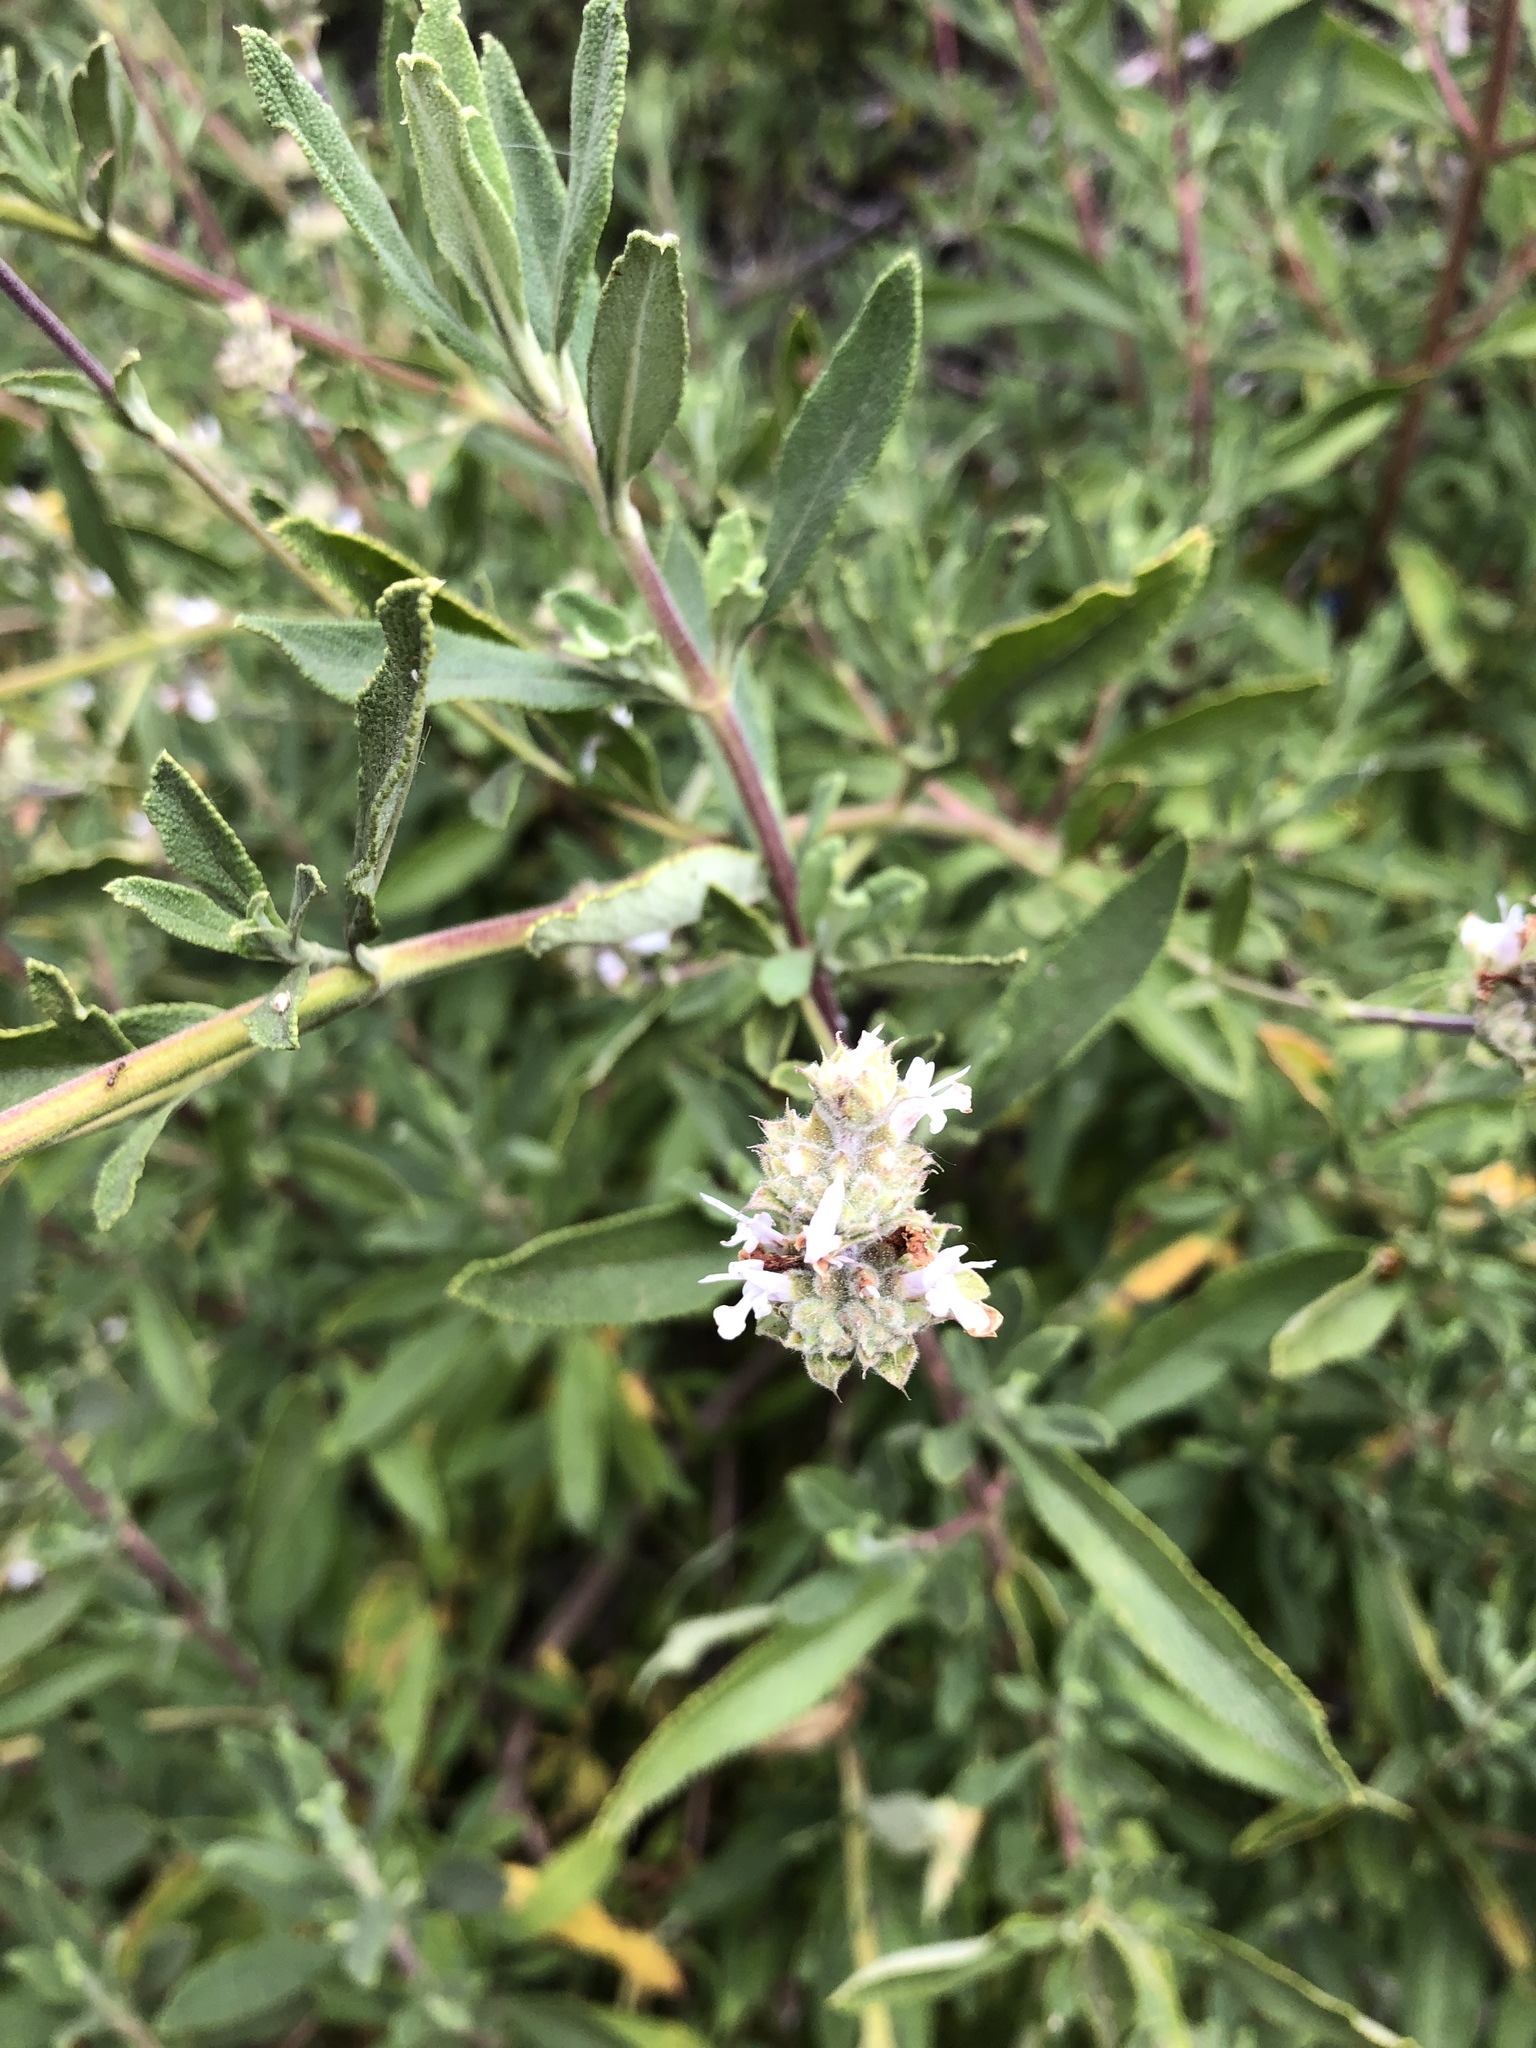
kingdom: Plantae
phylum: Tracheophyta
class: Magnoliopsida
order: Lamiales
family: Lamiaceae
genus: Salvia
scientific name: Salvia mellifera
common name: Black sage
